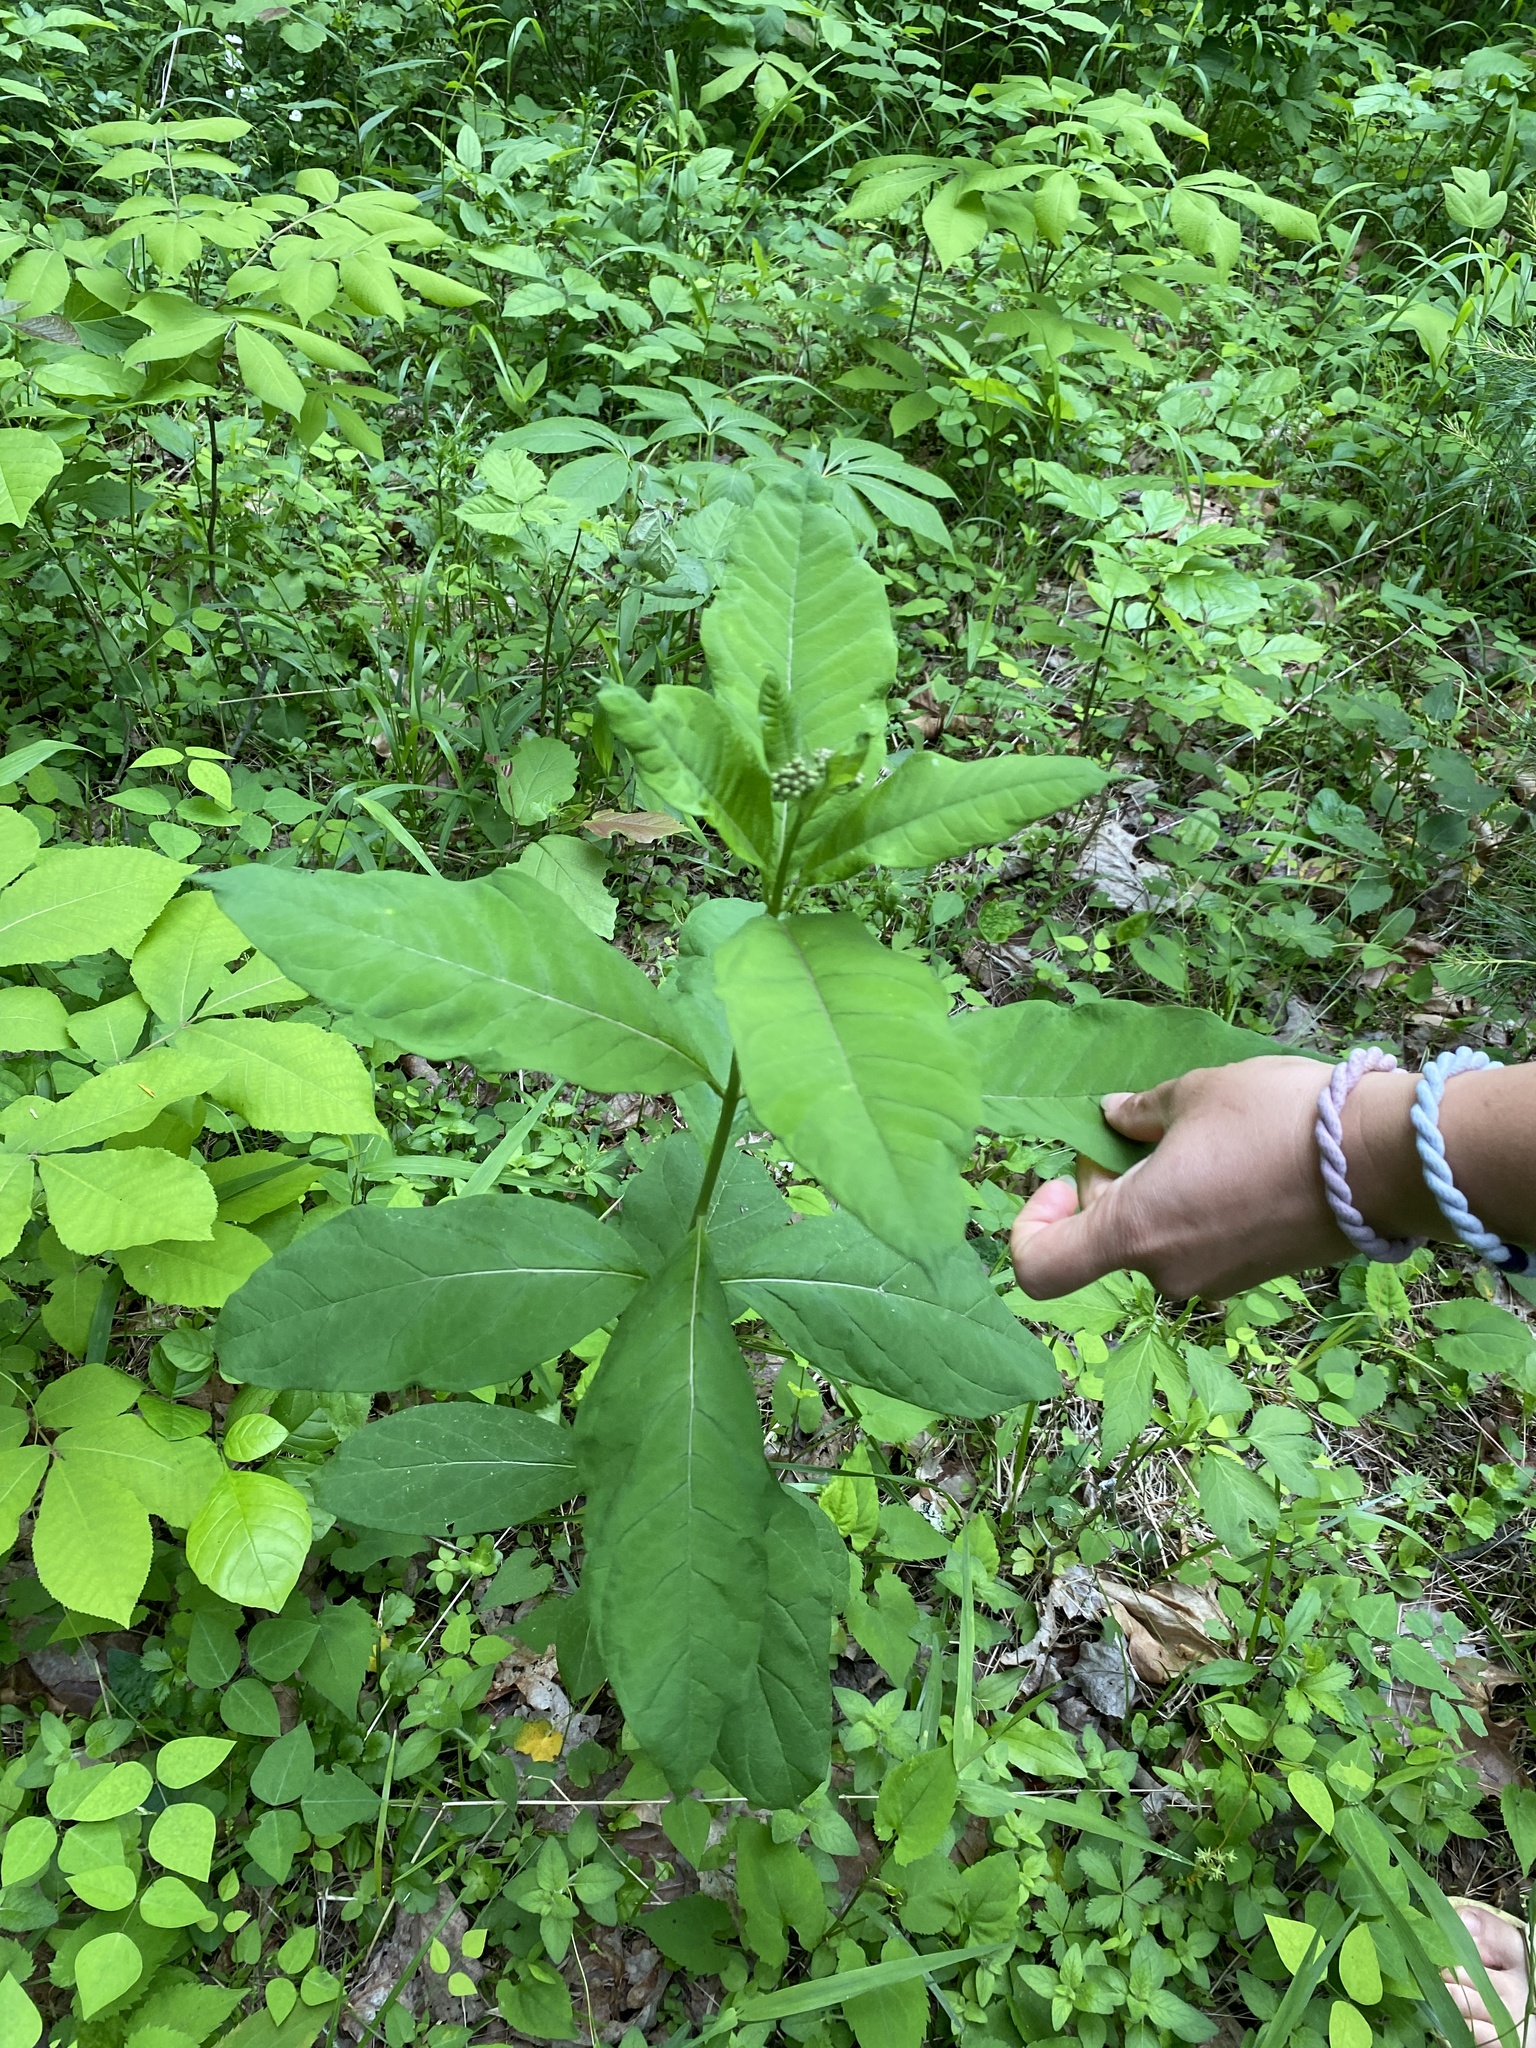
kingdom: Plantae
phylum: Tracheophyta
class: Magnoliopsida
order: Gentianales
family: Apocynaceae
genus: Asclepias
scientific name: Asclepias exaltata
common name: Poke milkweed
